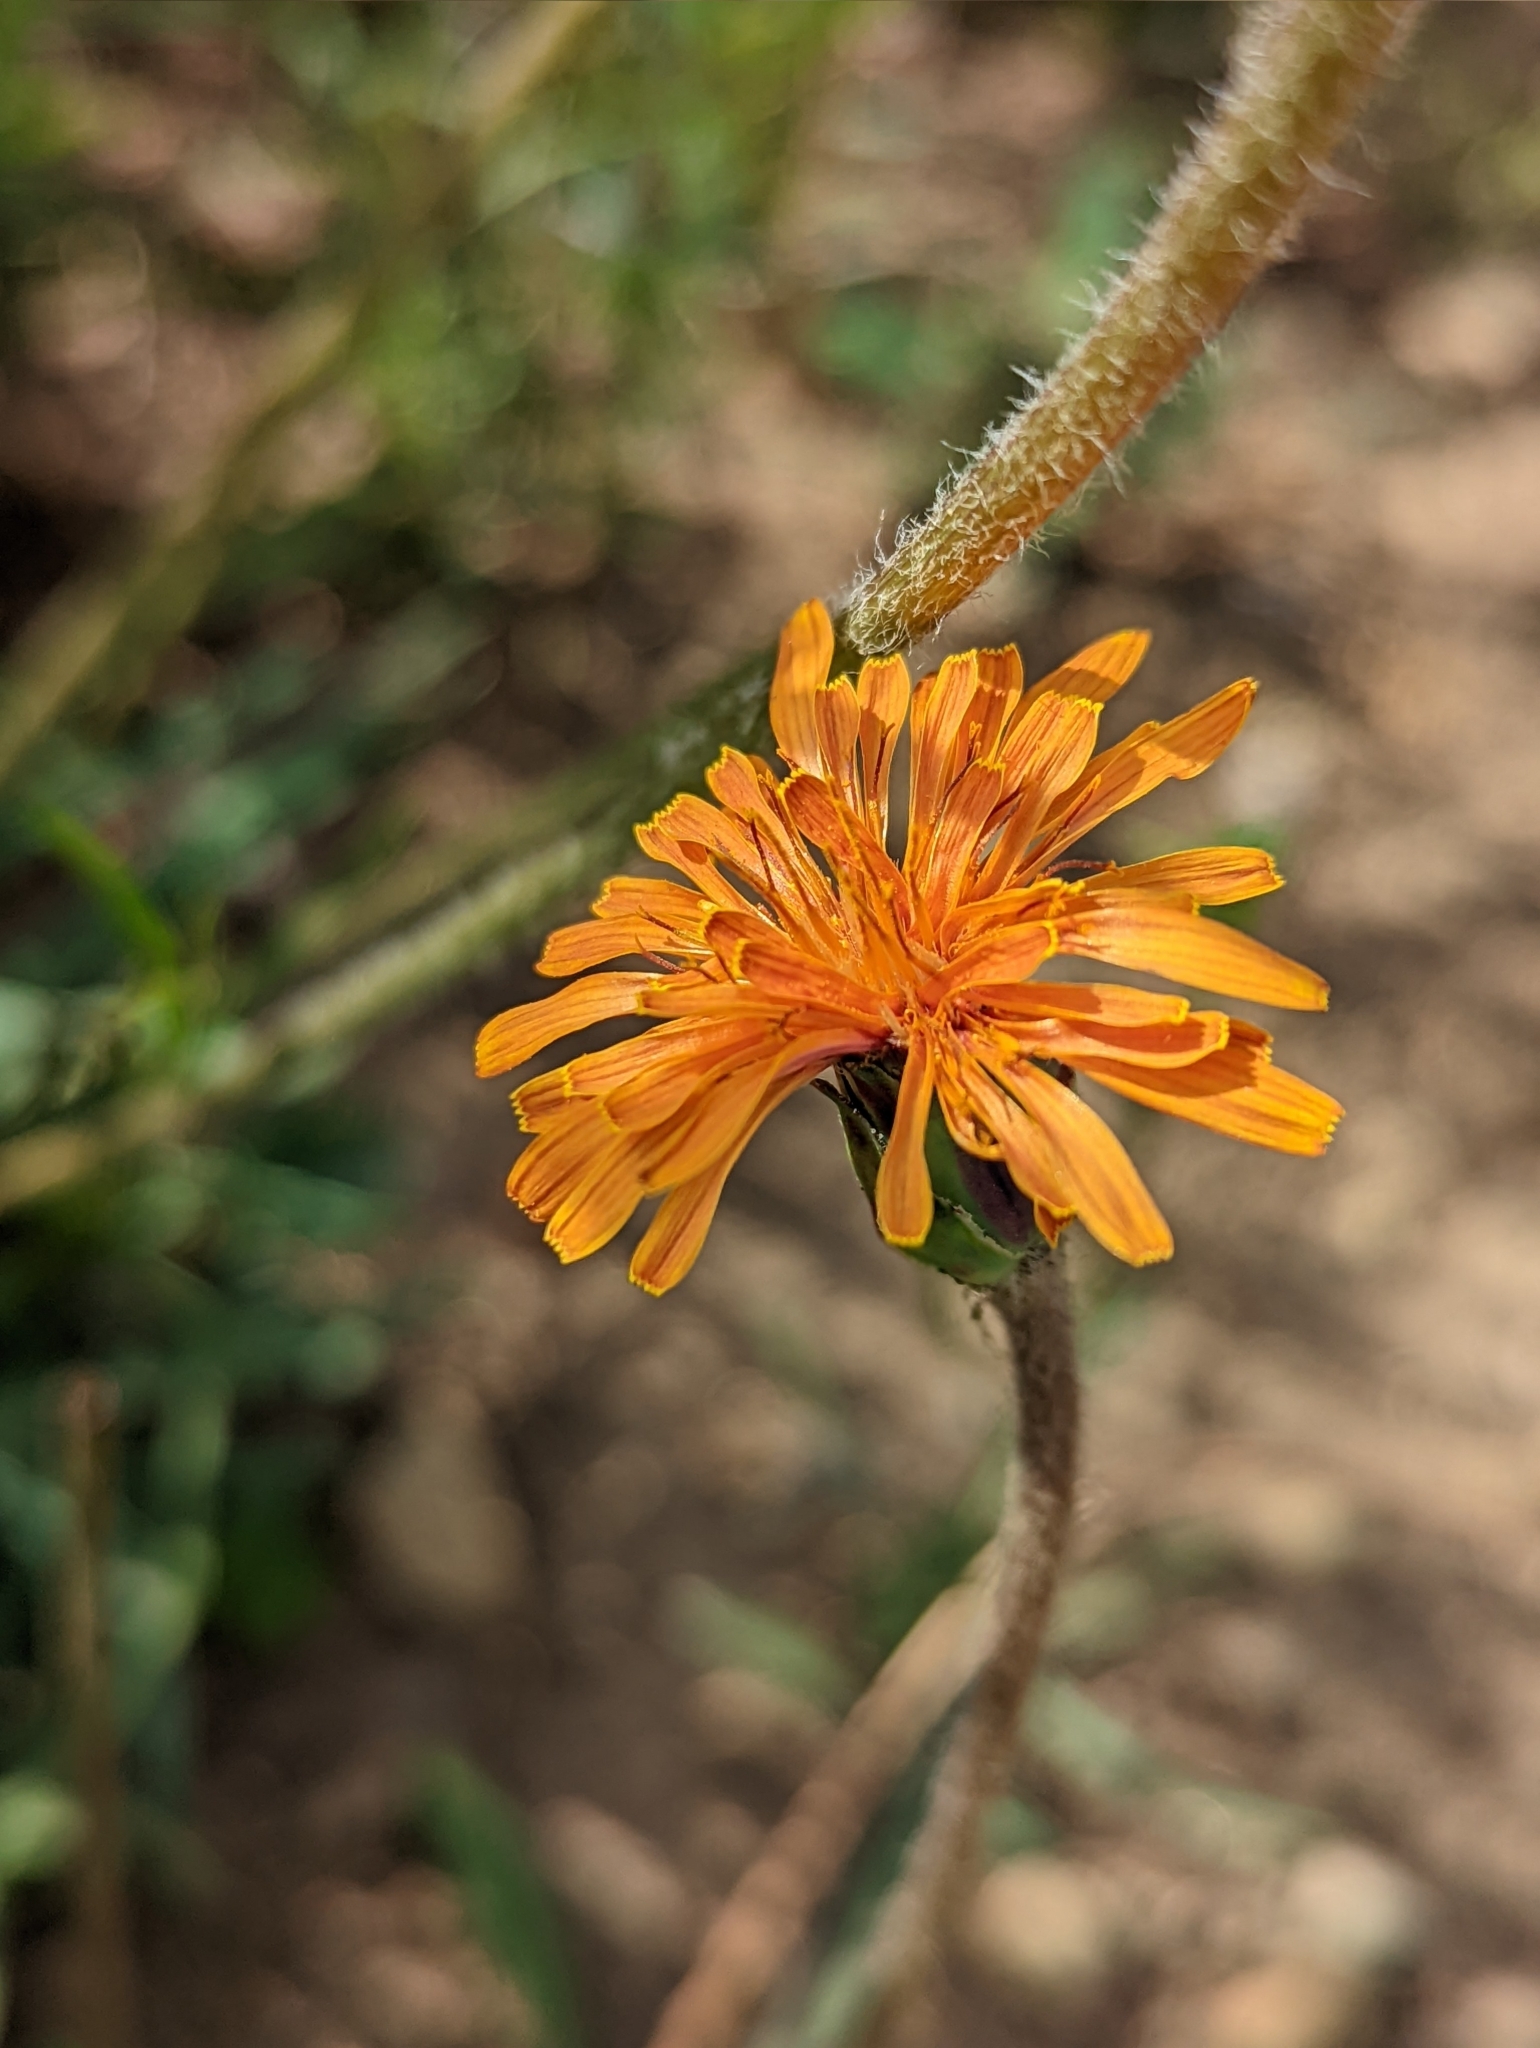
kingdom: Plantae
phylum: Tracheophyta
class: Magnoliopsida
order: Asterales
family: Asteraceae
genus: Agoseris
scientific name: Agoseris aurantiaca
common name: Mountain agoseris
